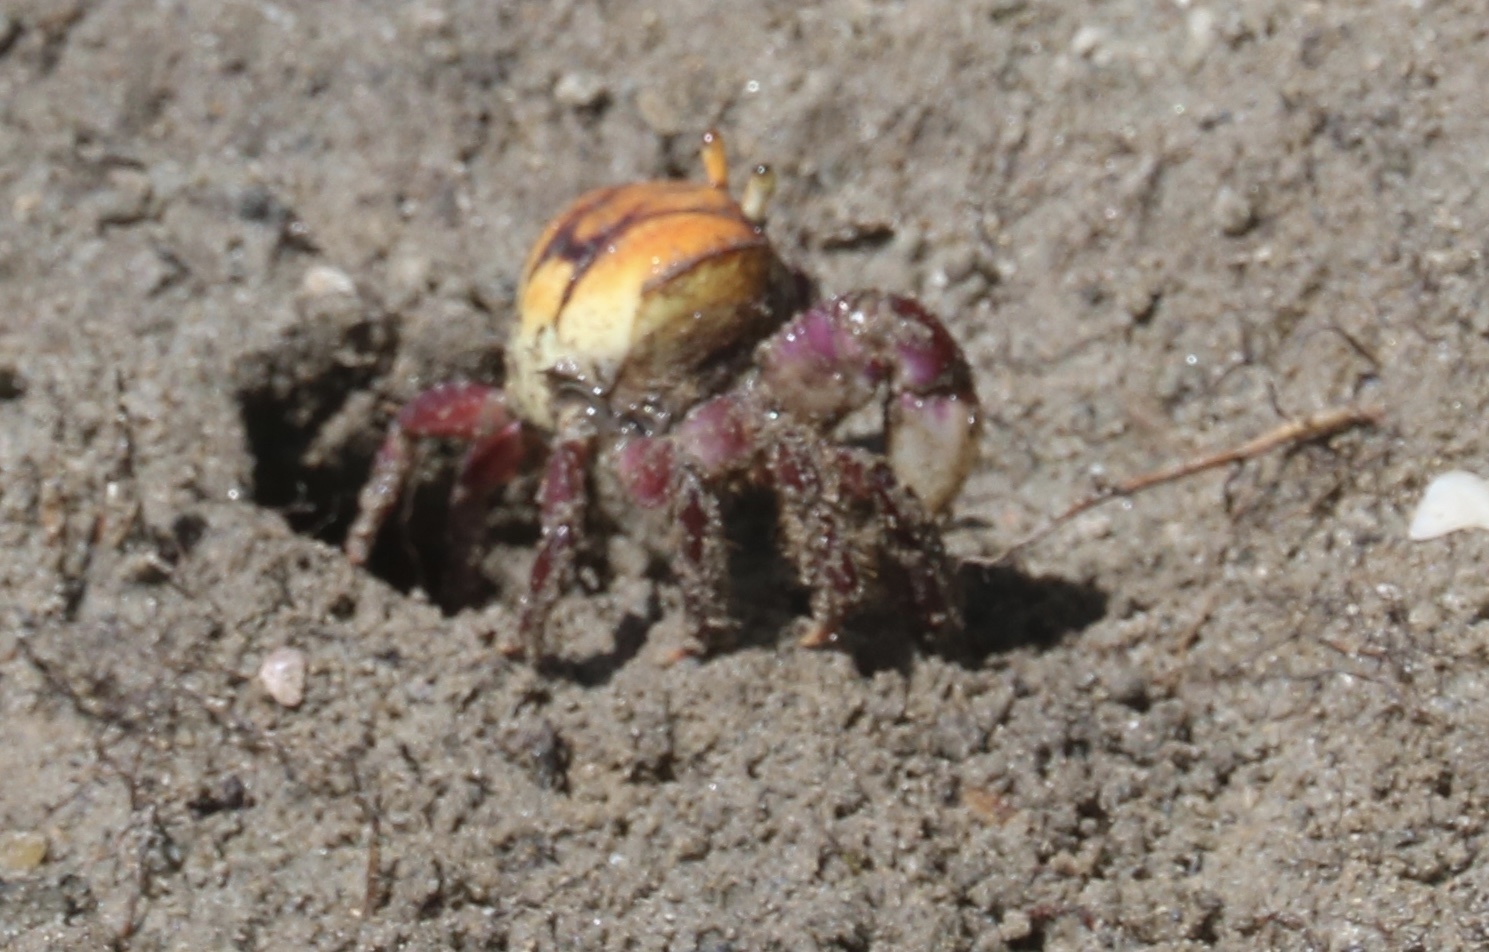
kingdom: Animalia
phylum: Arthropoda
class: Malacostraca
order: Decapoda
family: Ocypodidae
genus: Ucides
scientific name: Ucides cordatus
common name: Swamp ghost crab
